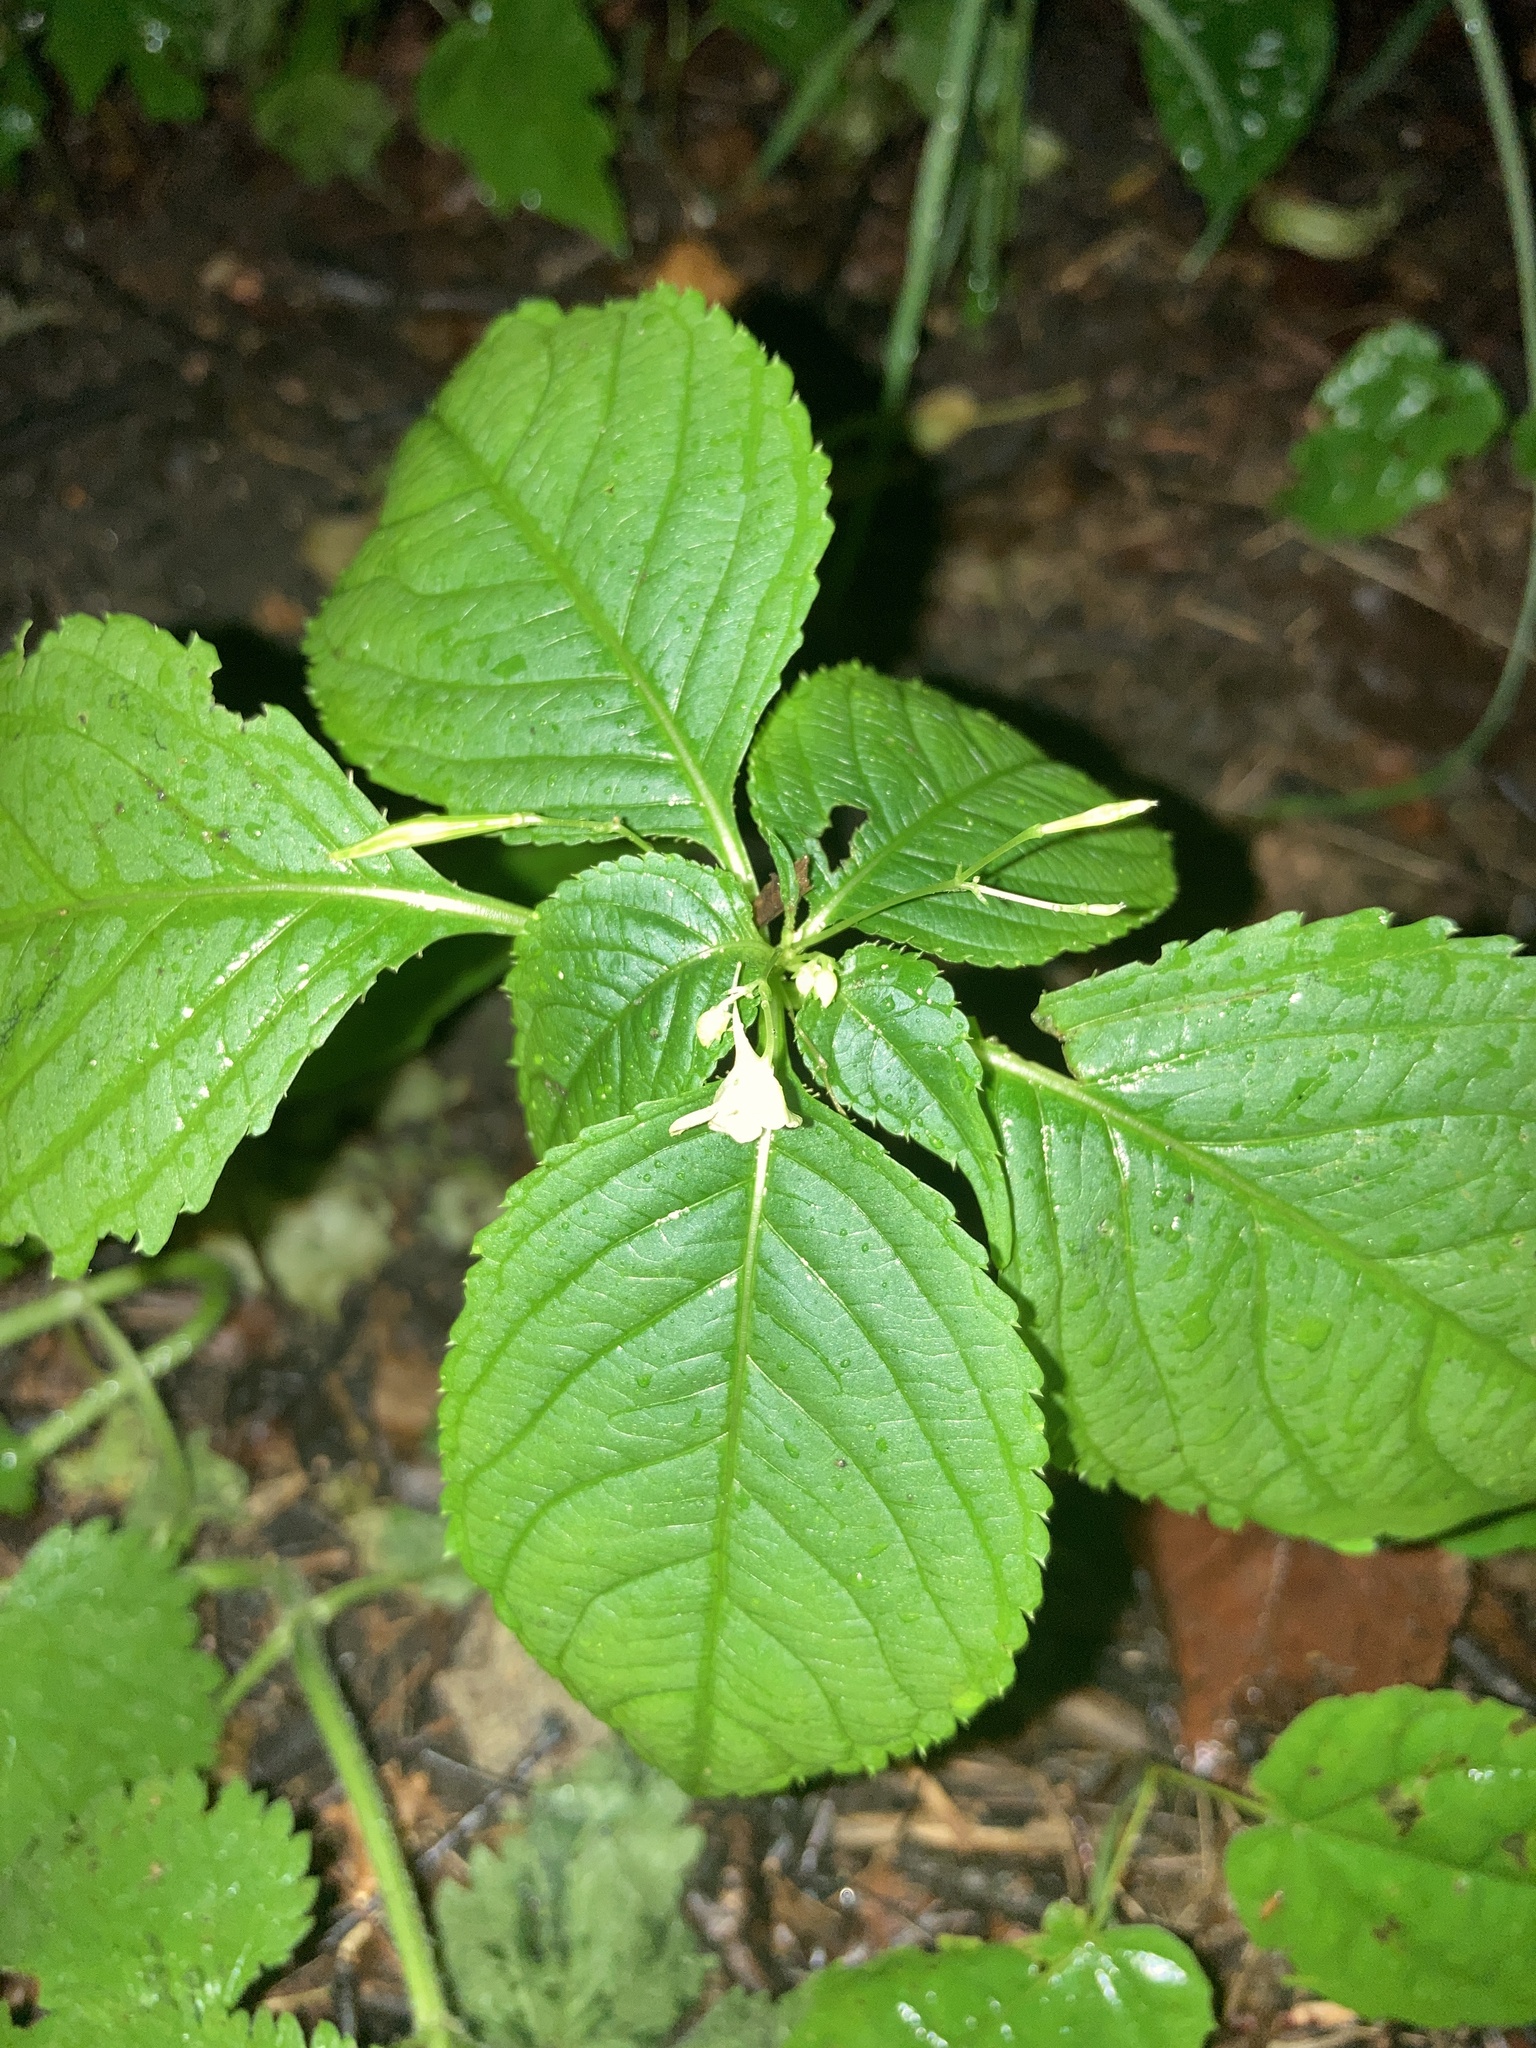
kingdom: Plantae
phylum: Tracheophyta
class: Magnoliopsida
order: Ericales
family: Balsaminaceae
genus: Impatiens
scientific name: Impatiens parviflora
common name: Small balsam
